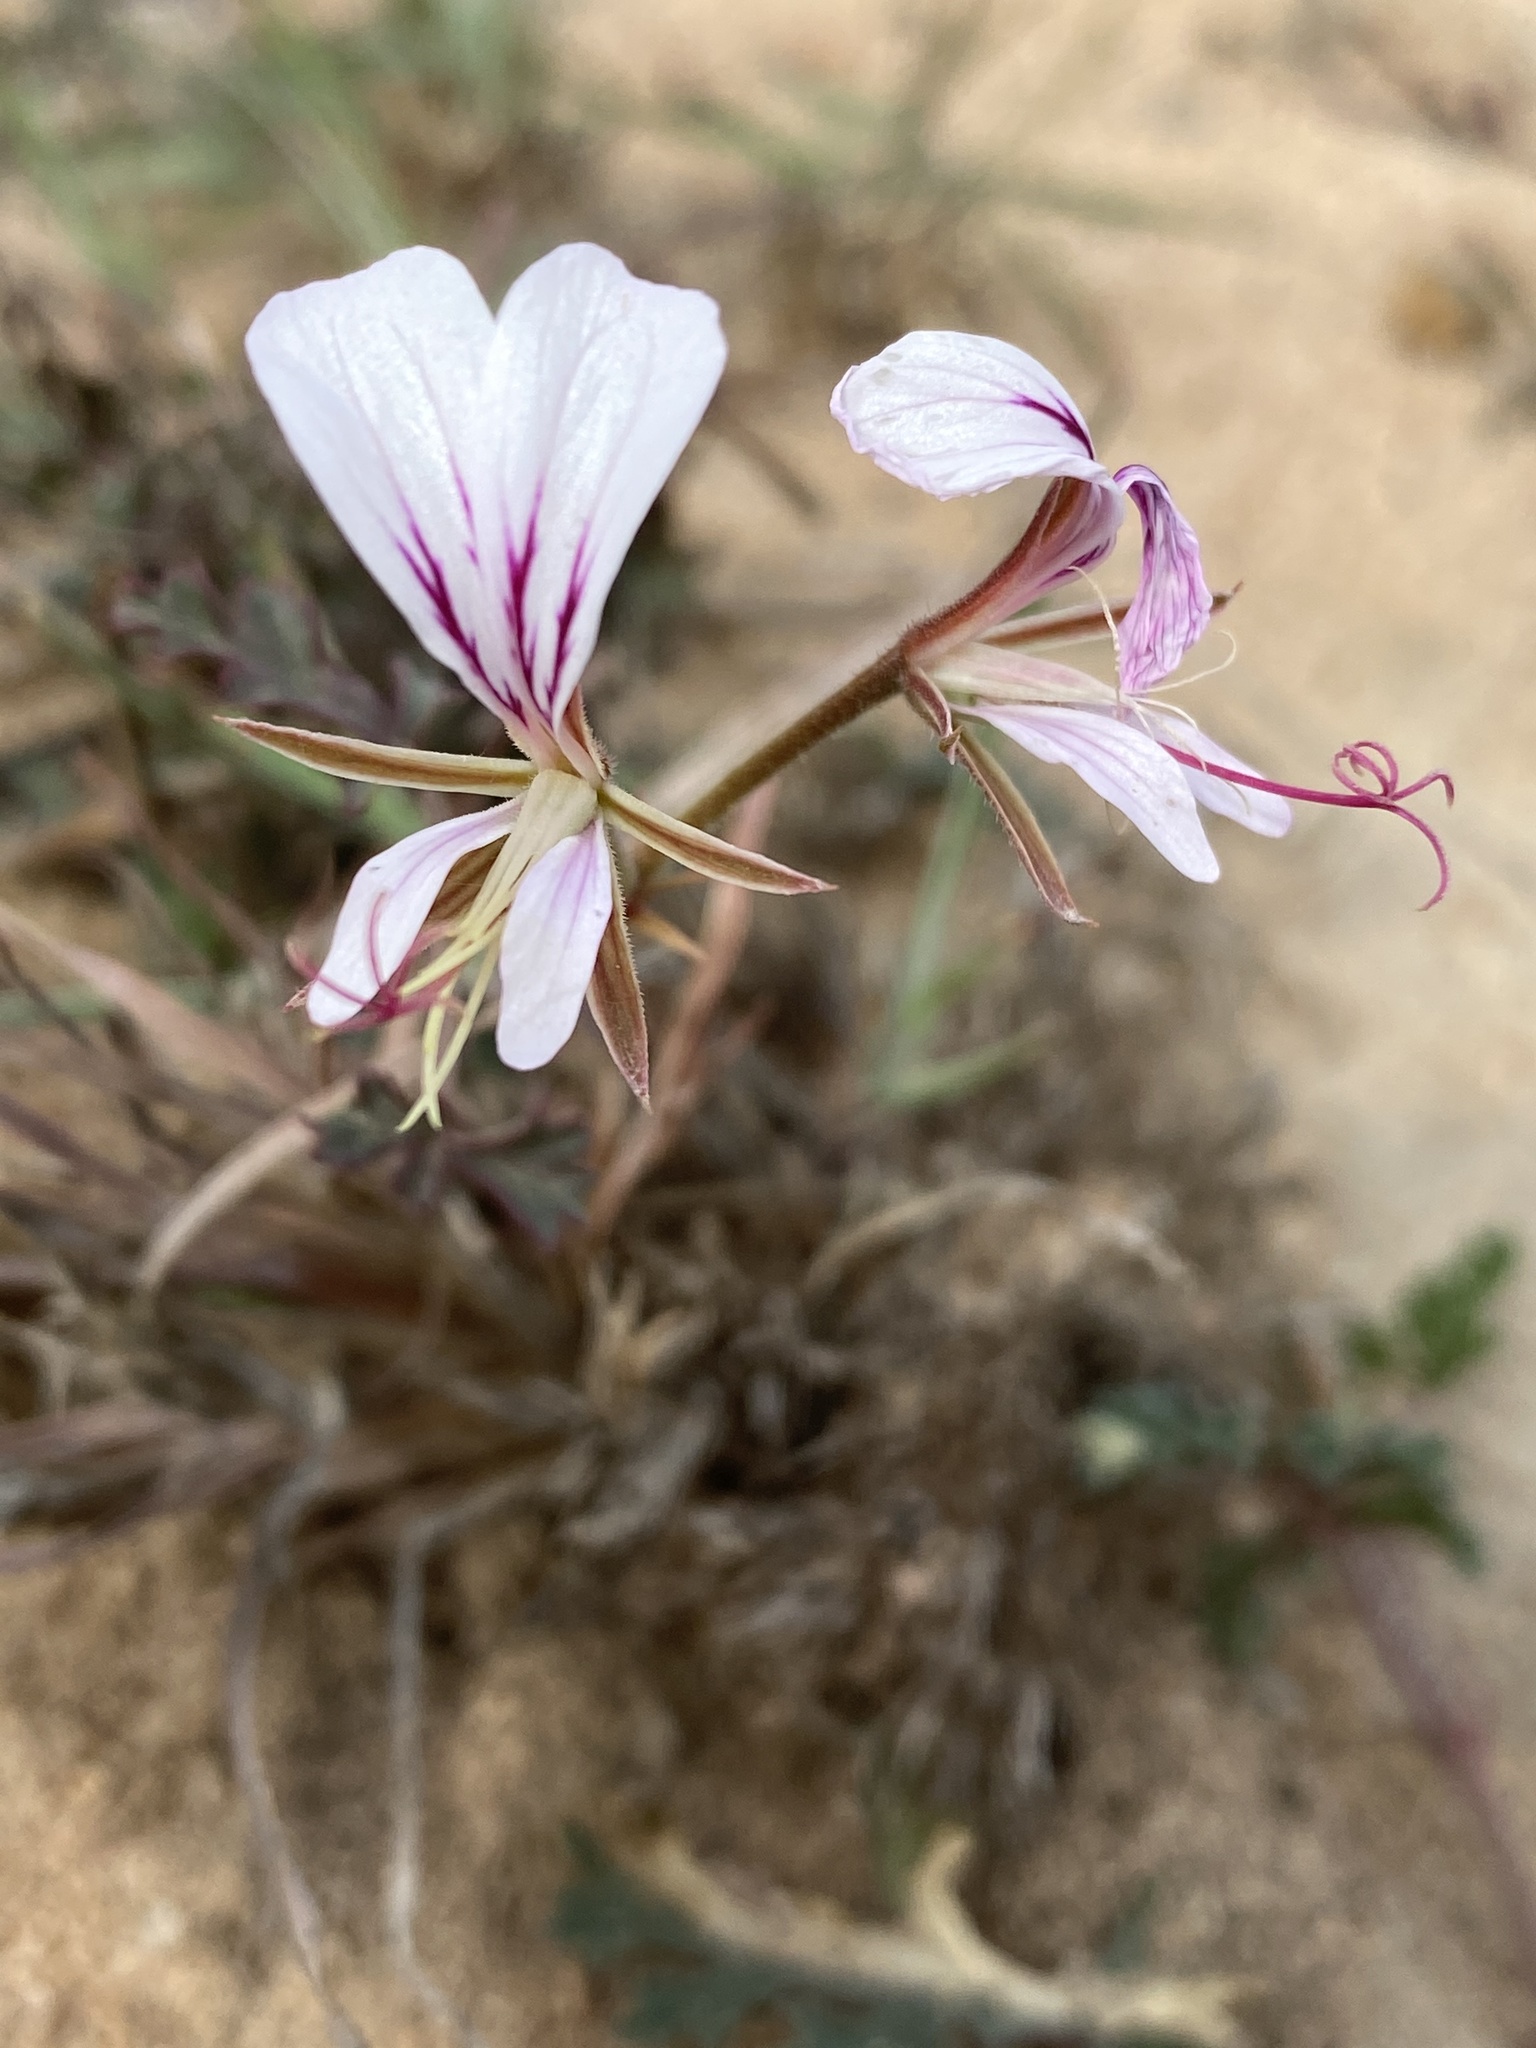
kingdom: Plantae
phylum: Tracheophyta
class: Magnoliopsida
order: Geraniales
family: Geraniaceae
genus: Pelargonium
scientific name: Pelargonium caucalifolium
